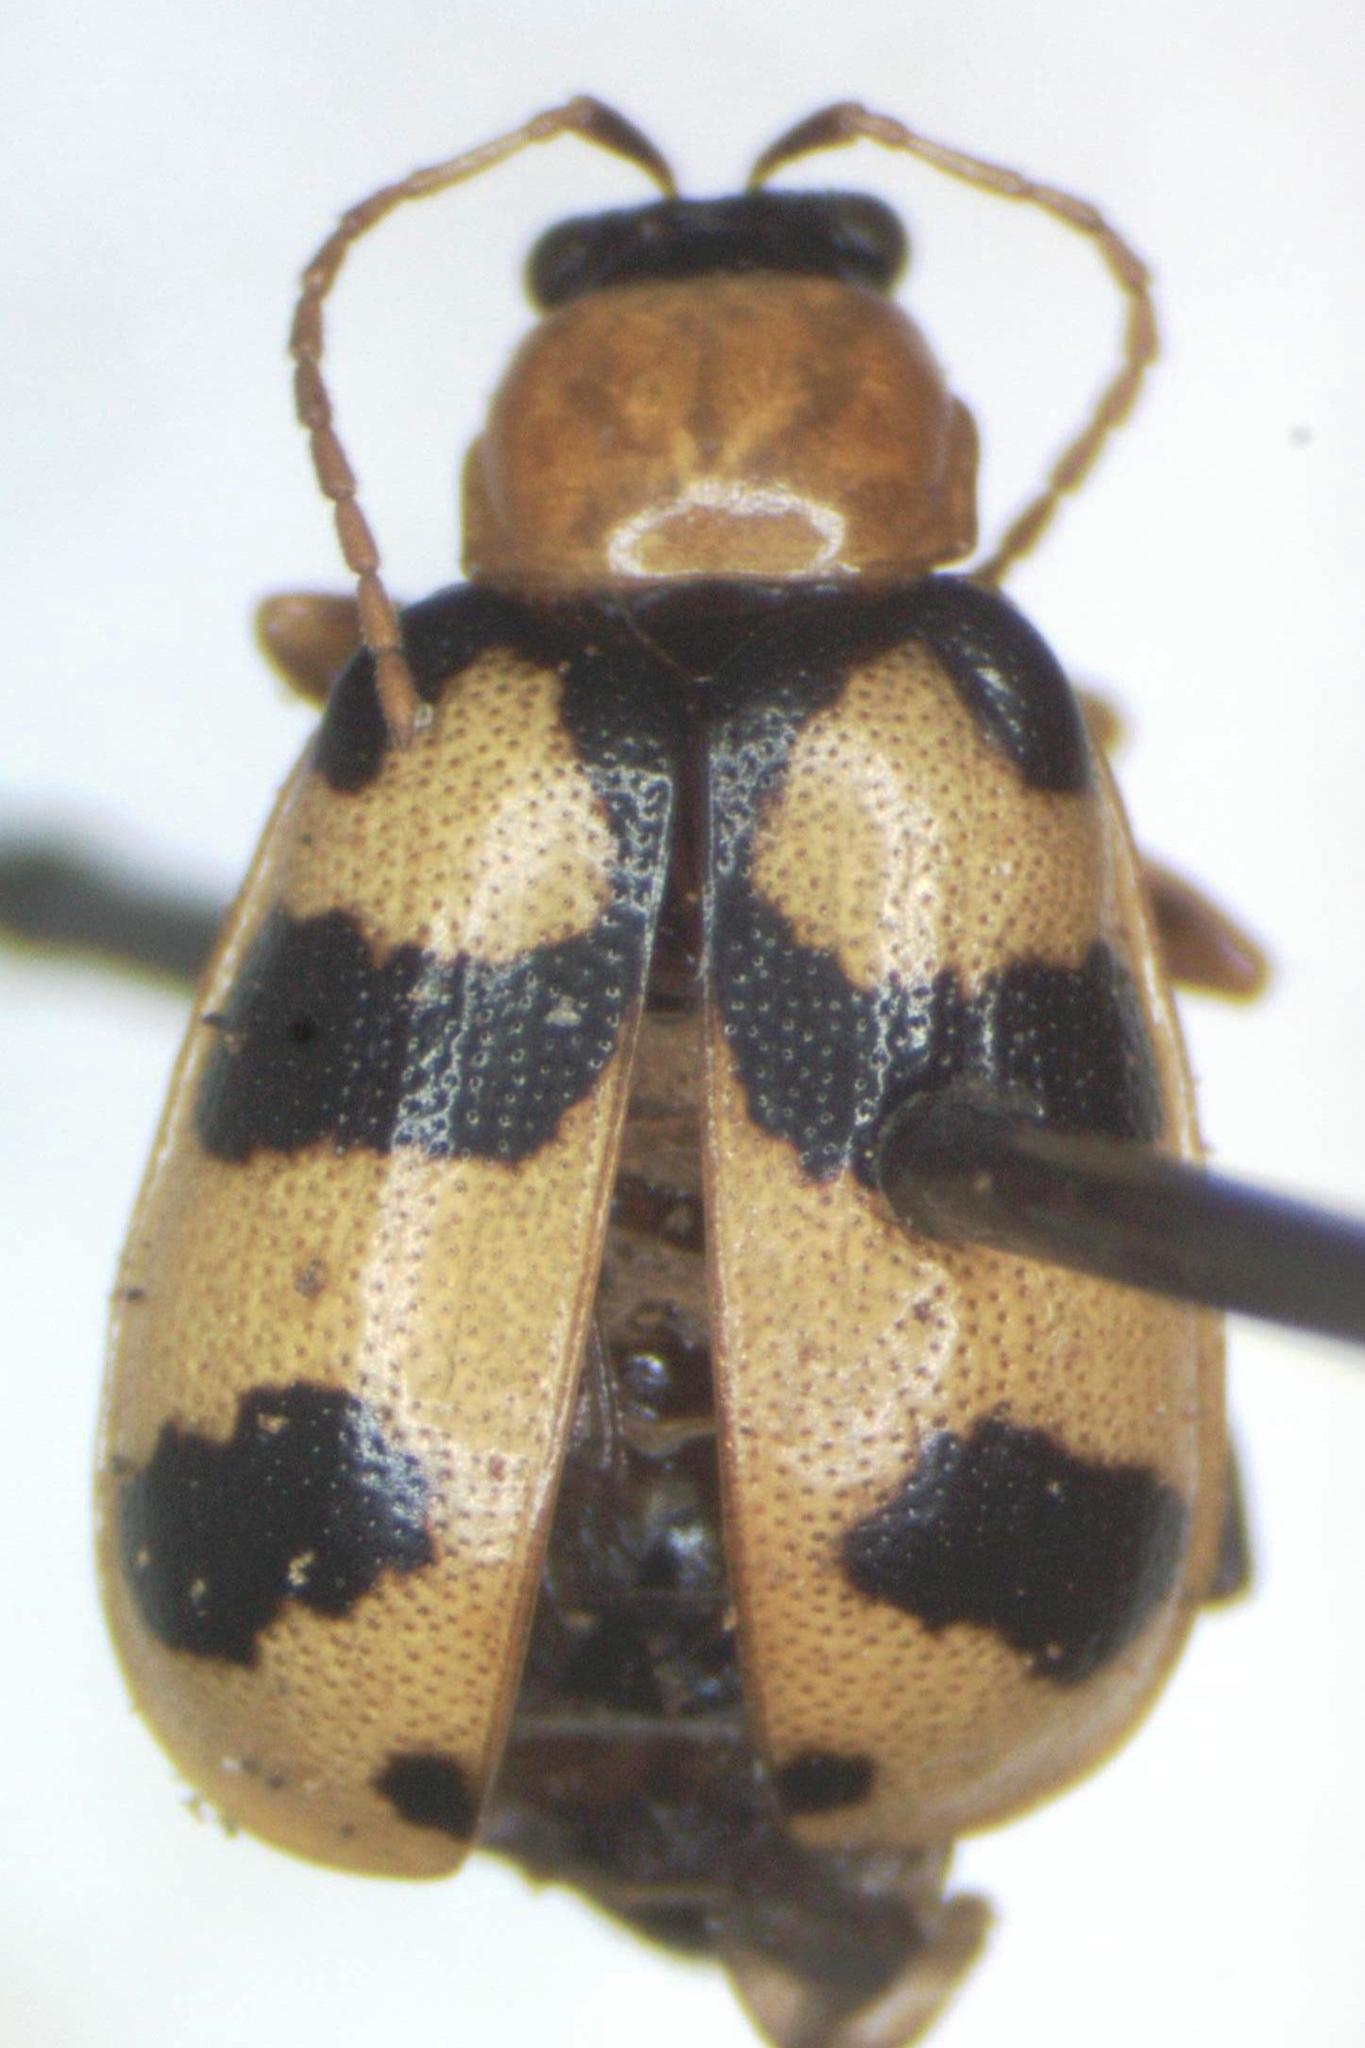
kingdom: Animalia
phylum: Arthropoda
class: Insecta
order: Coleoptera
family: Chrysomelidae
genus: Cerotoma
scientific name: Cerotoma atrofasciata
